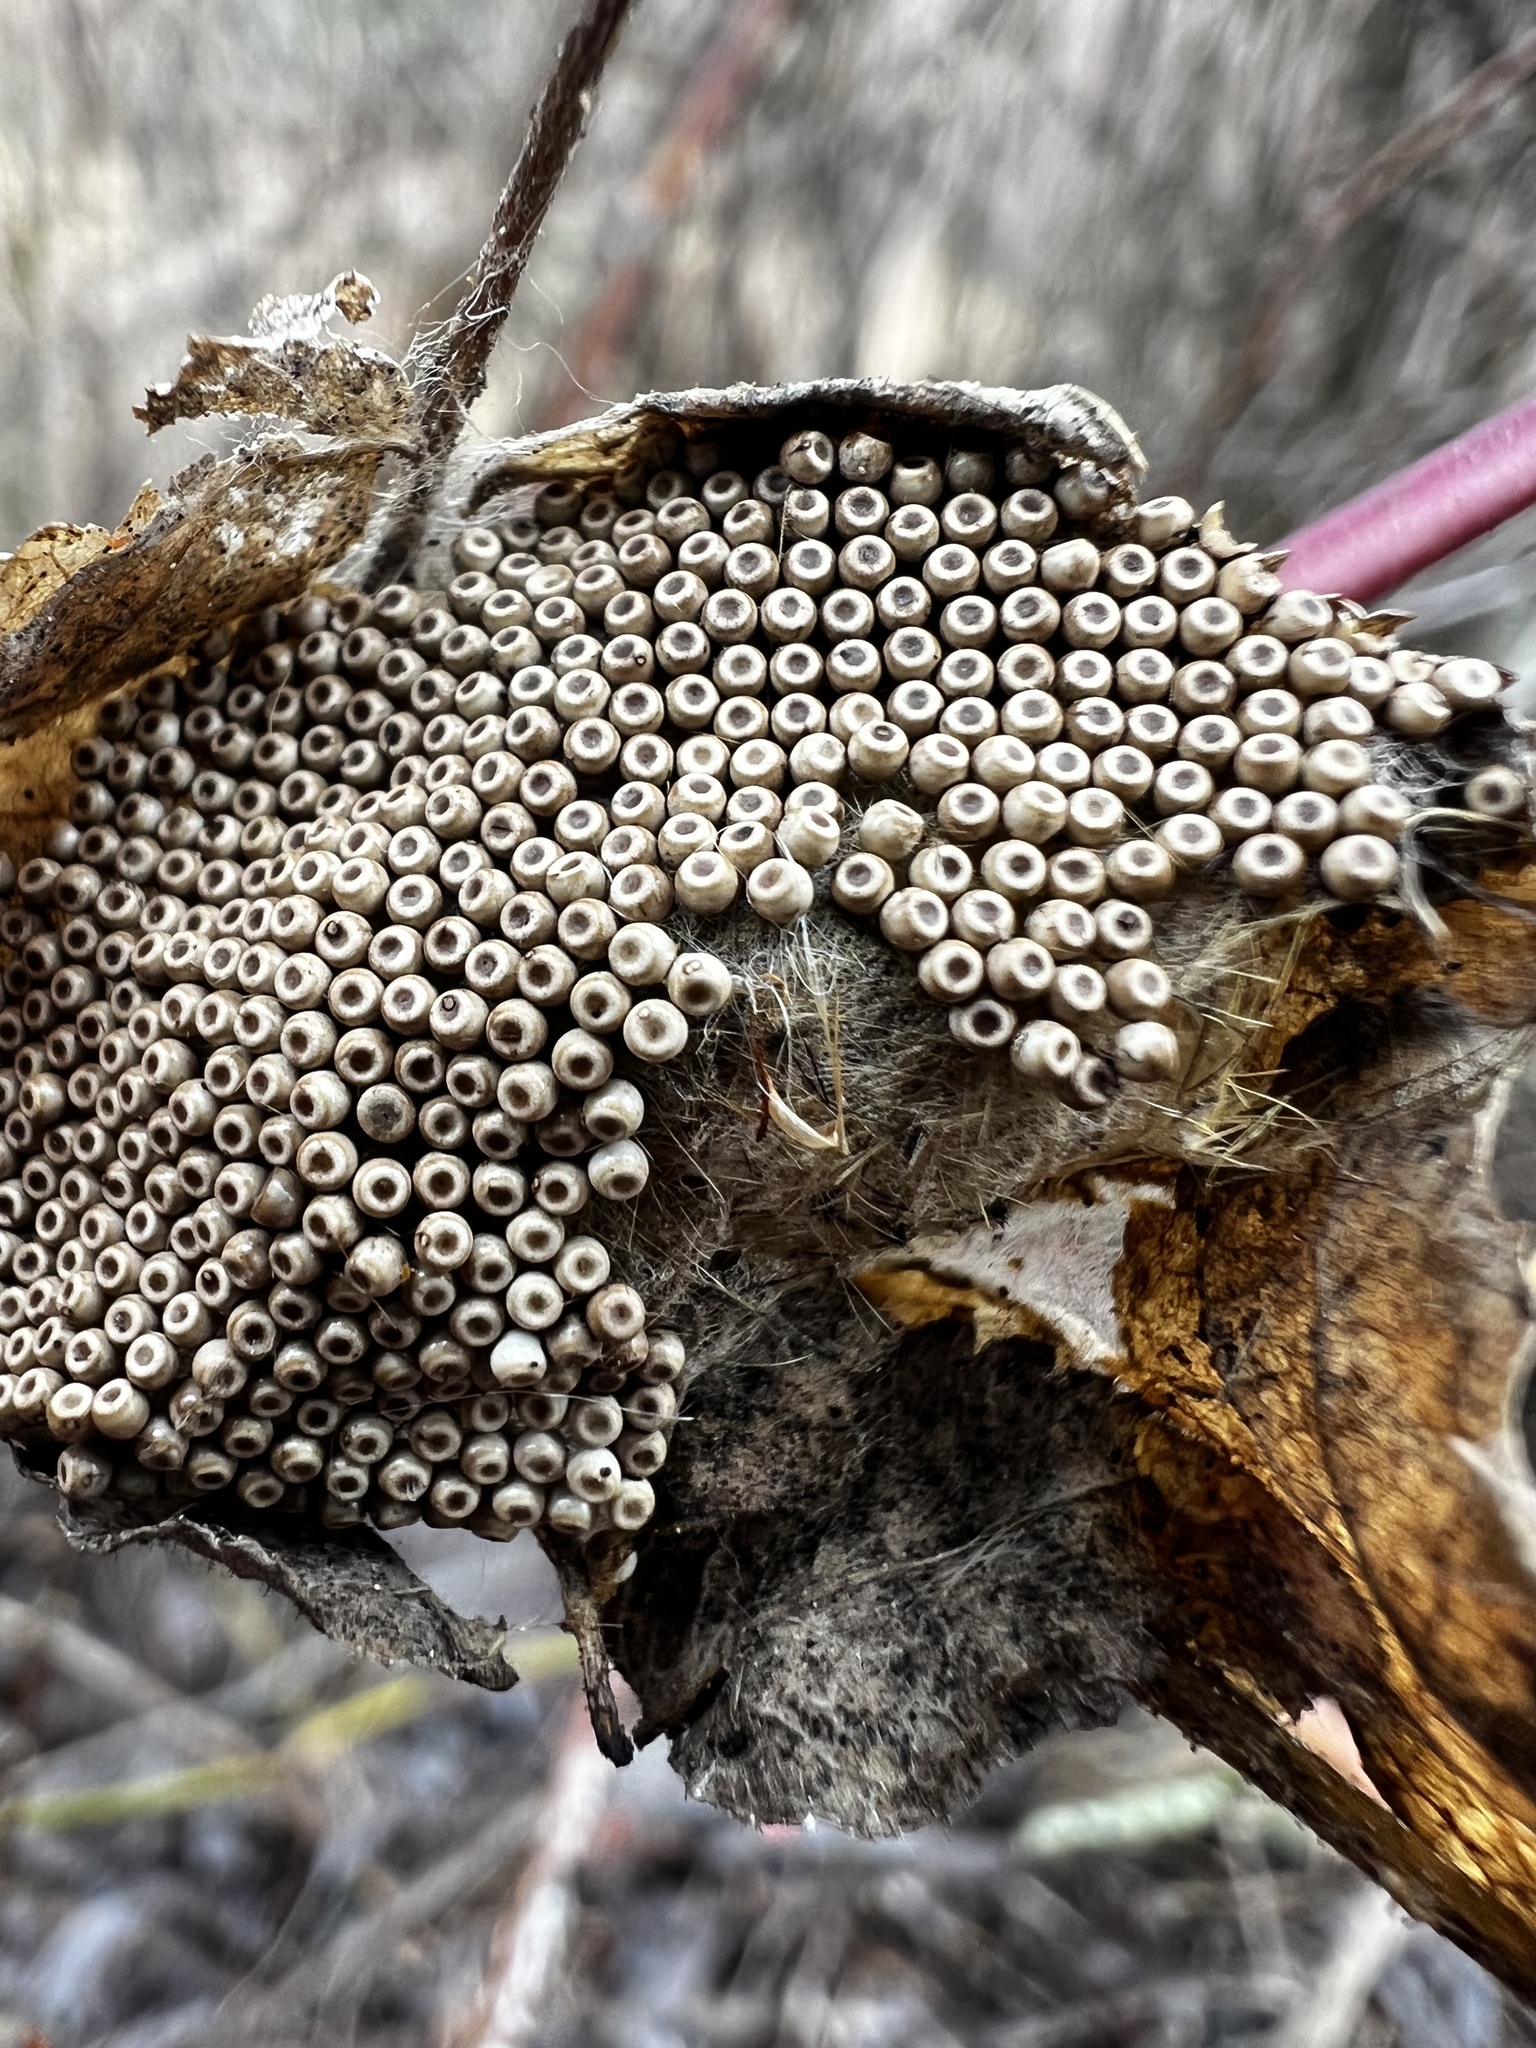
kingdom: Animalia
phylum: Arthropoda
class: Insecta
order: Lepidoptera
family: Erebidae
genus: Orgyia
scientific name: Orgyia antiqua
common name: Vapourer
